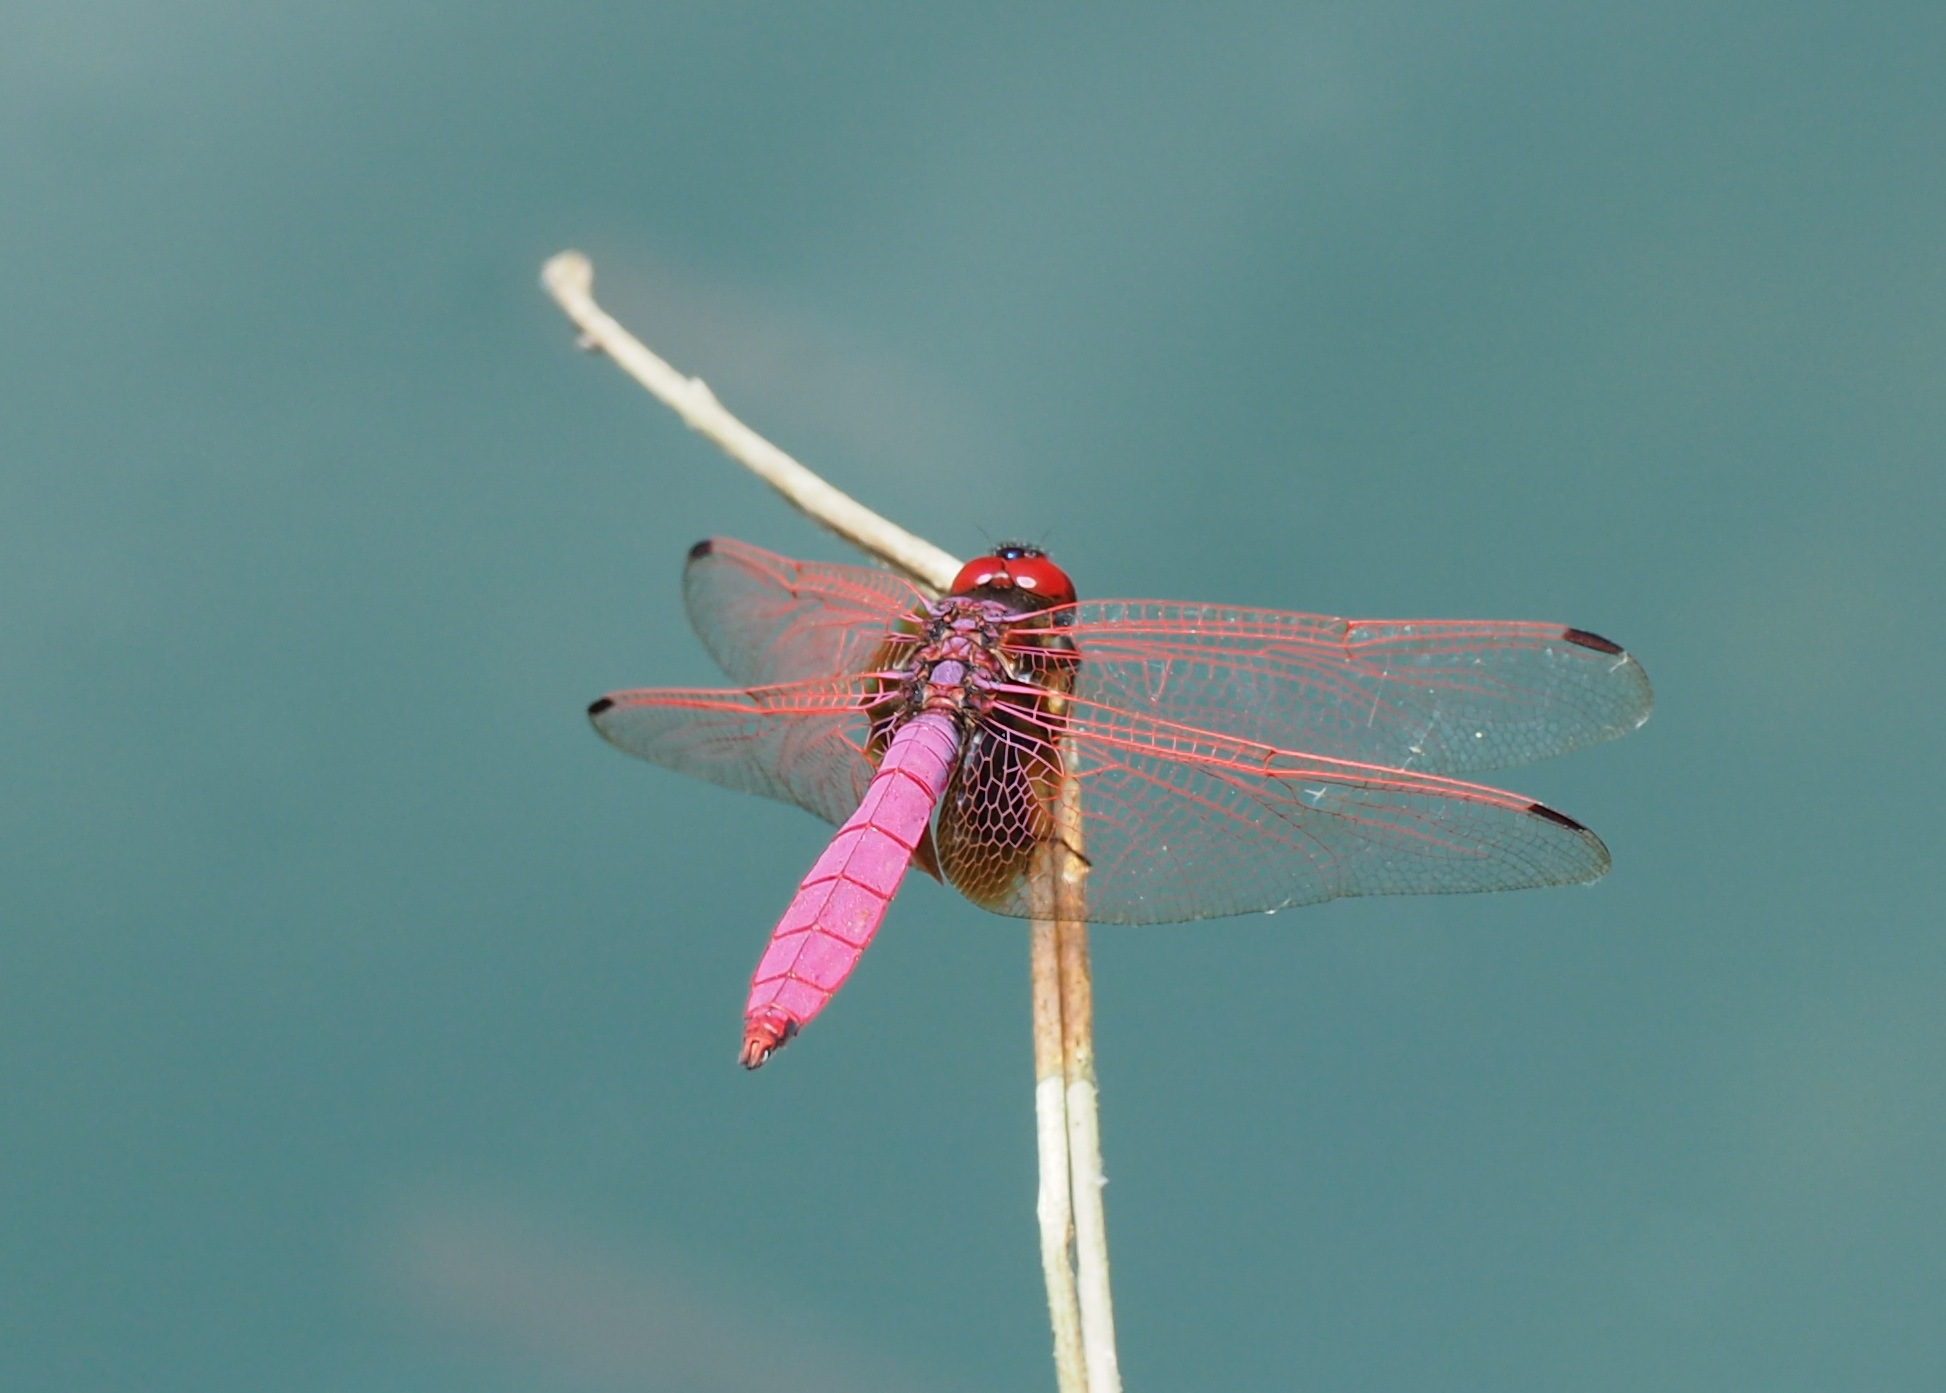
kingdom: Animalia
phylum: Arthropoda
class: Insecta
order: Odonata
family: Libellulidae
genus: Trithemis
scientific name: Trithemis aurora
